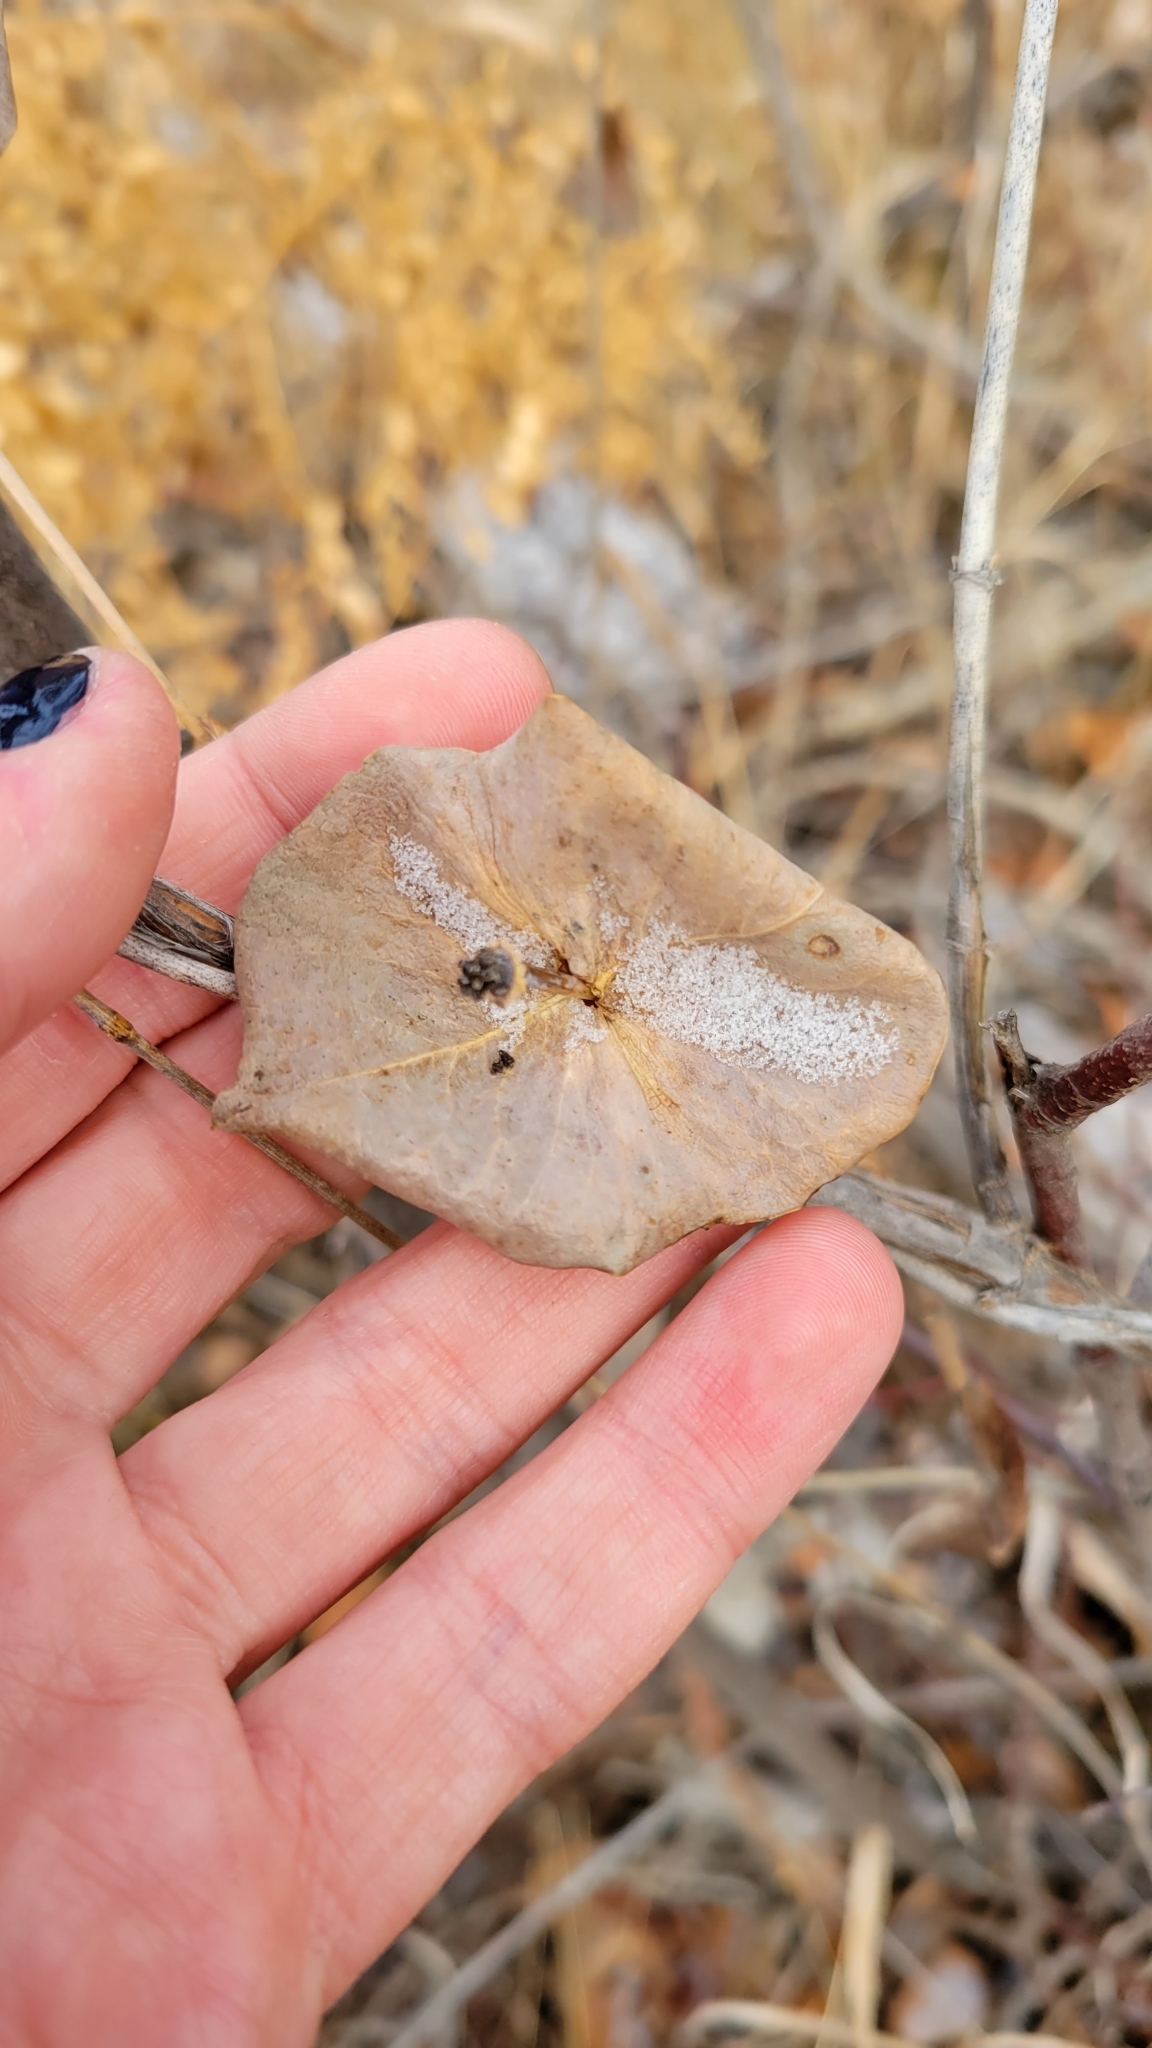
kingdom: Plantae
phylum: Tracheophyta
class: Magnoliopsida
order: Dipsacales
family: Caprifoliaceae
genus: Lonicera
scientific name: Lonicera dioica
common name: Limber honeysuckle
